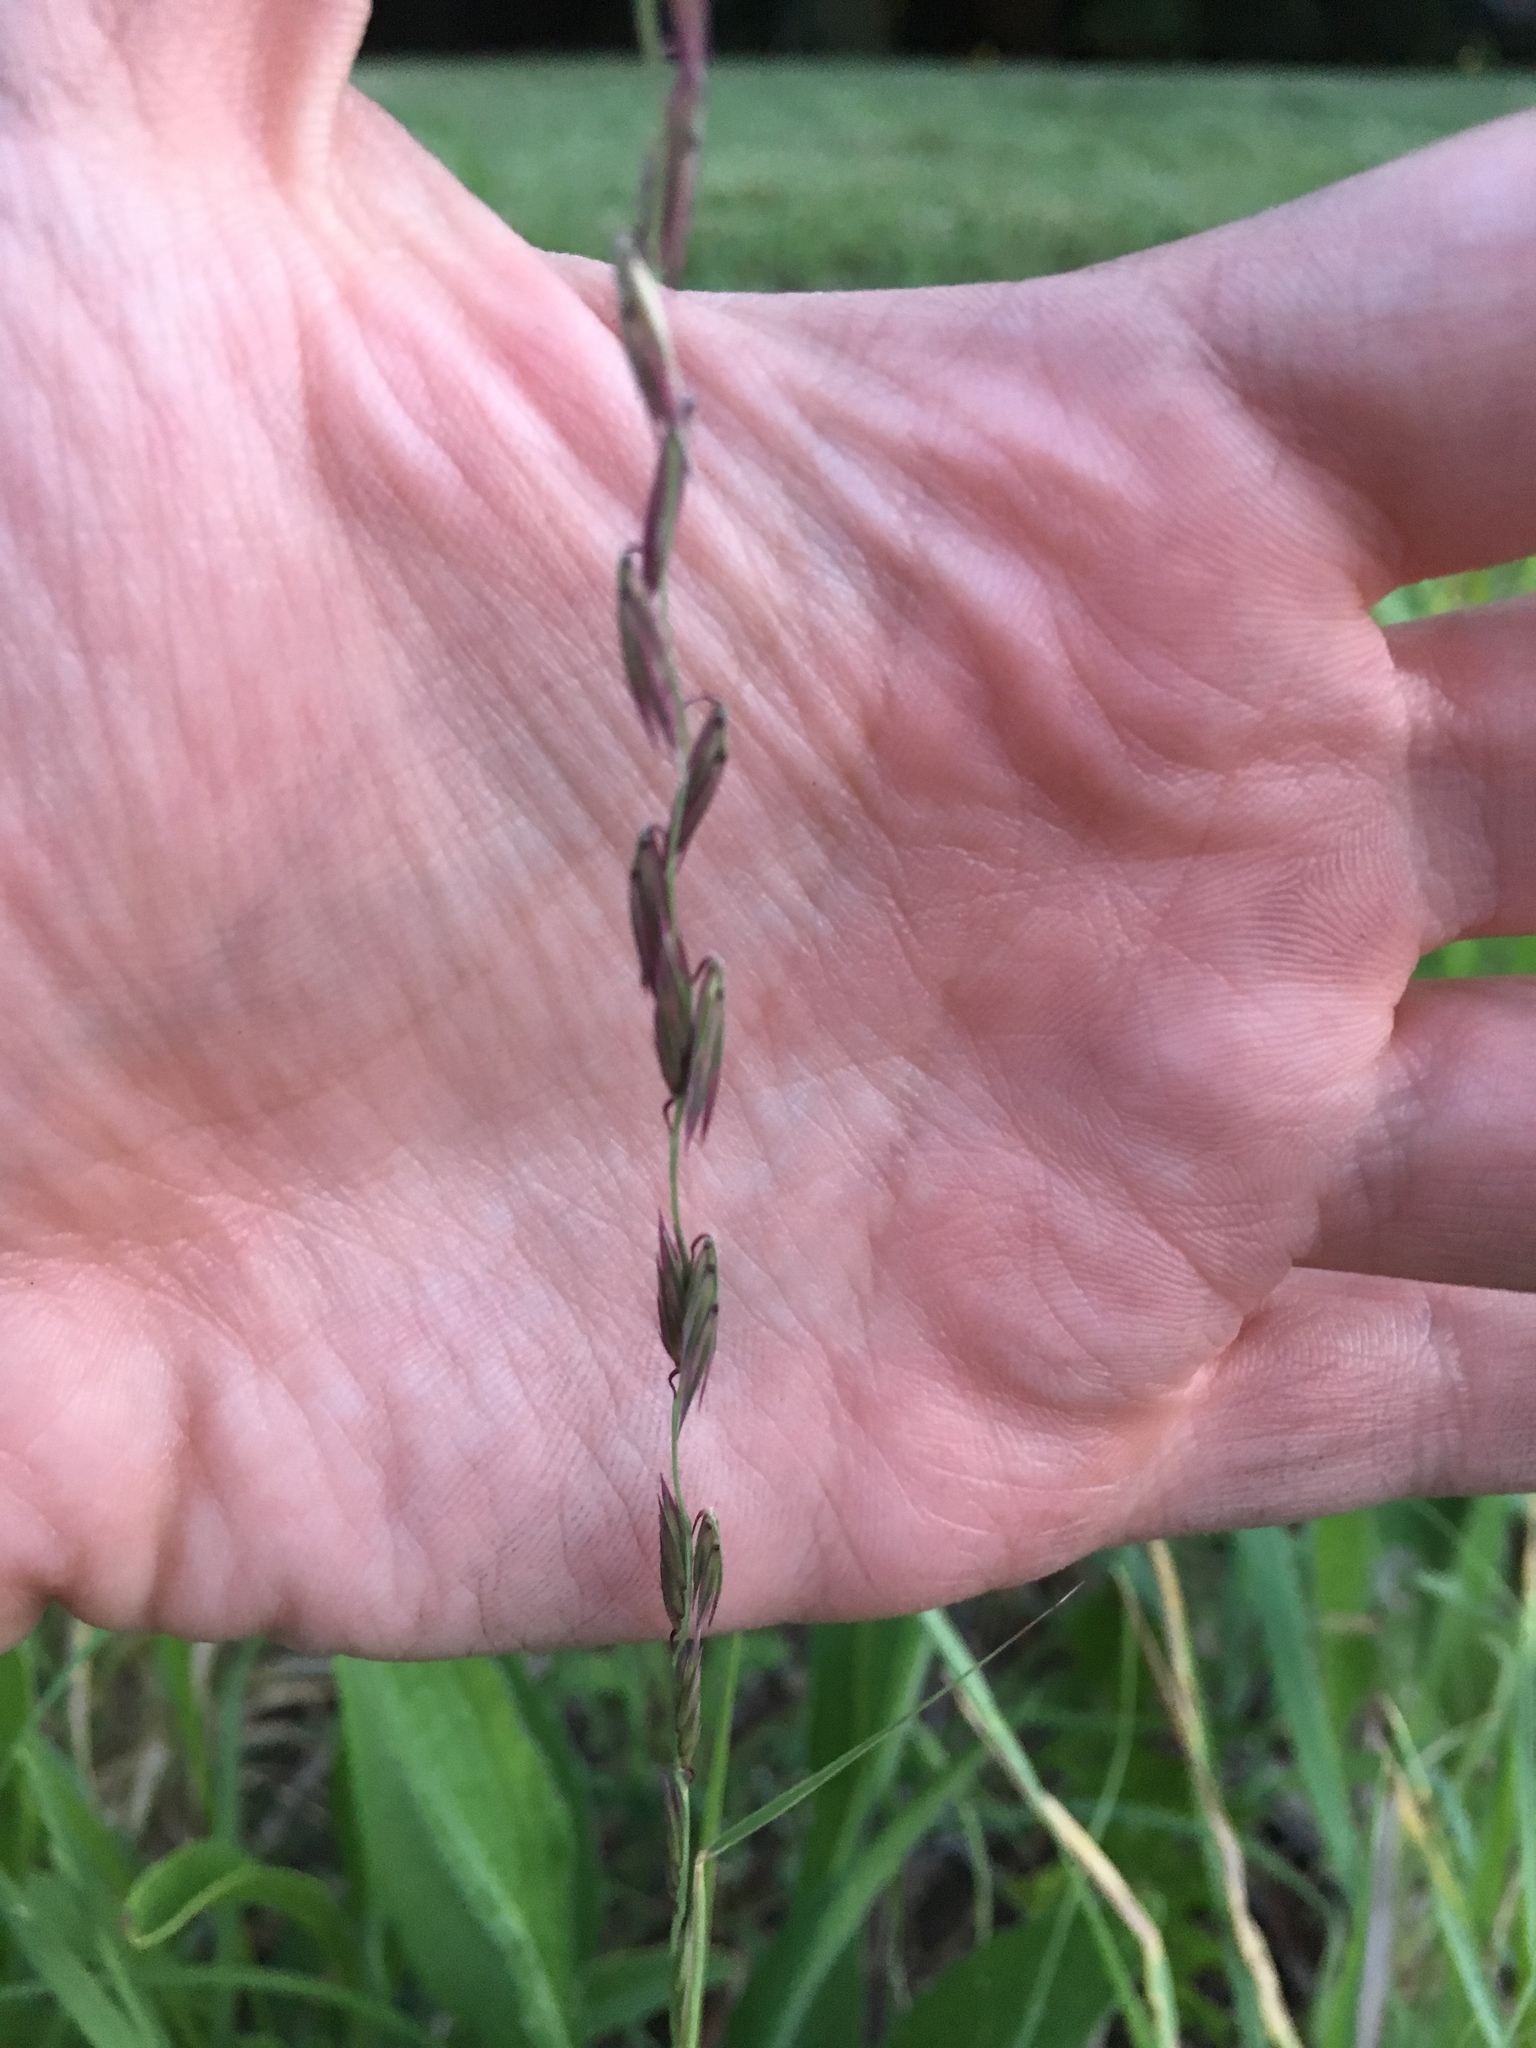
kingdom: Plantae
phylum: Tracheophyta
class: Liliopsida
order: Poales
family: Poaceae
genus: Bouteloua
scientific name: Bouteloua curtipendula
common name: Side-oats grama
